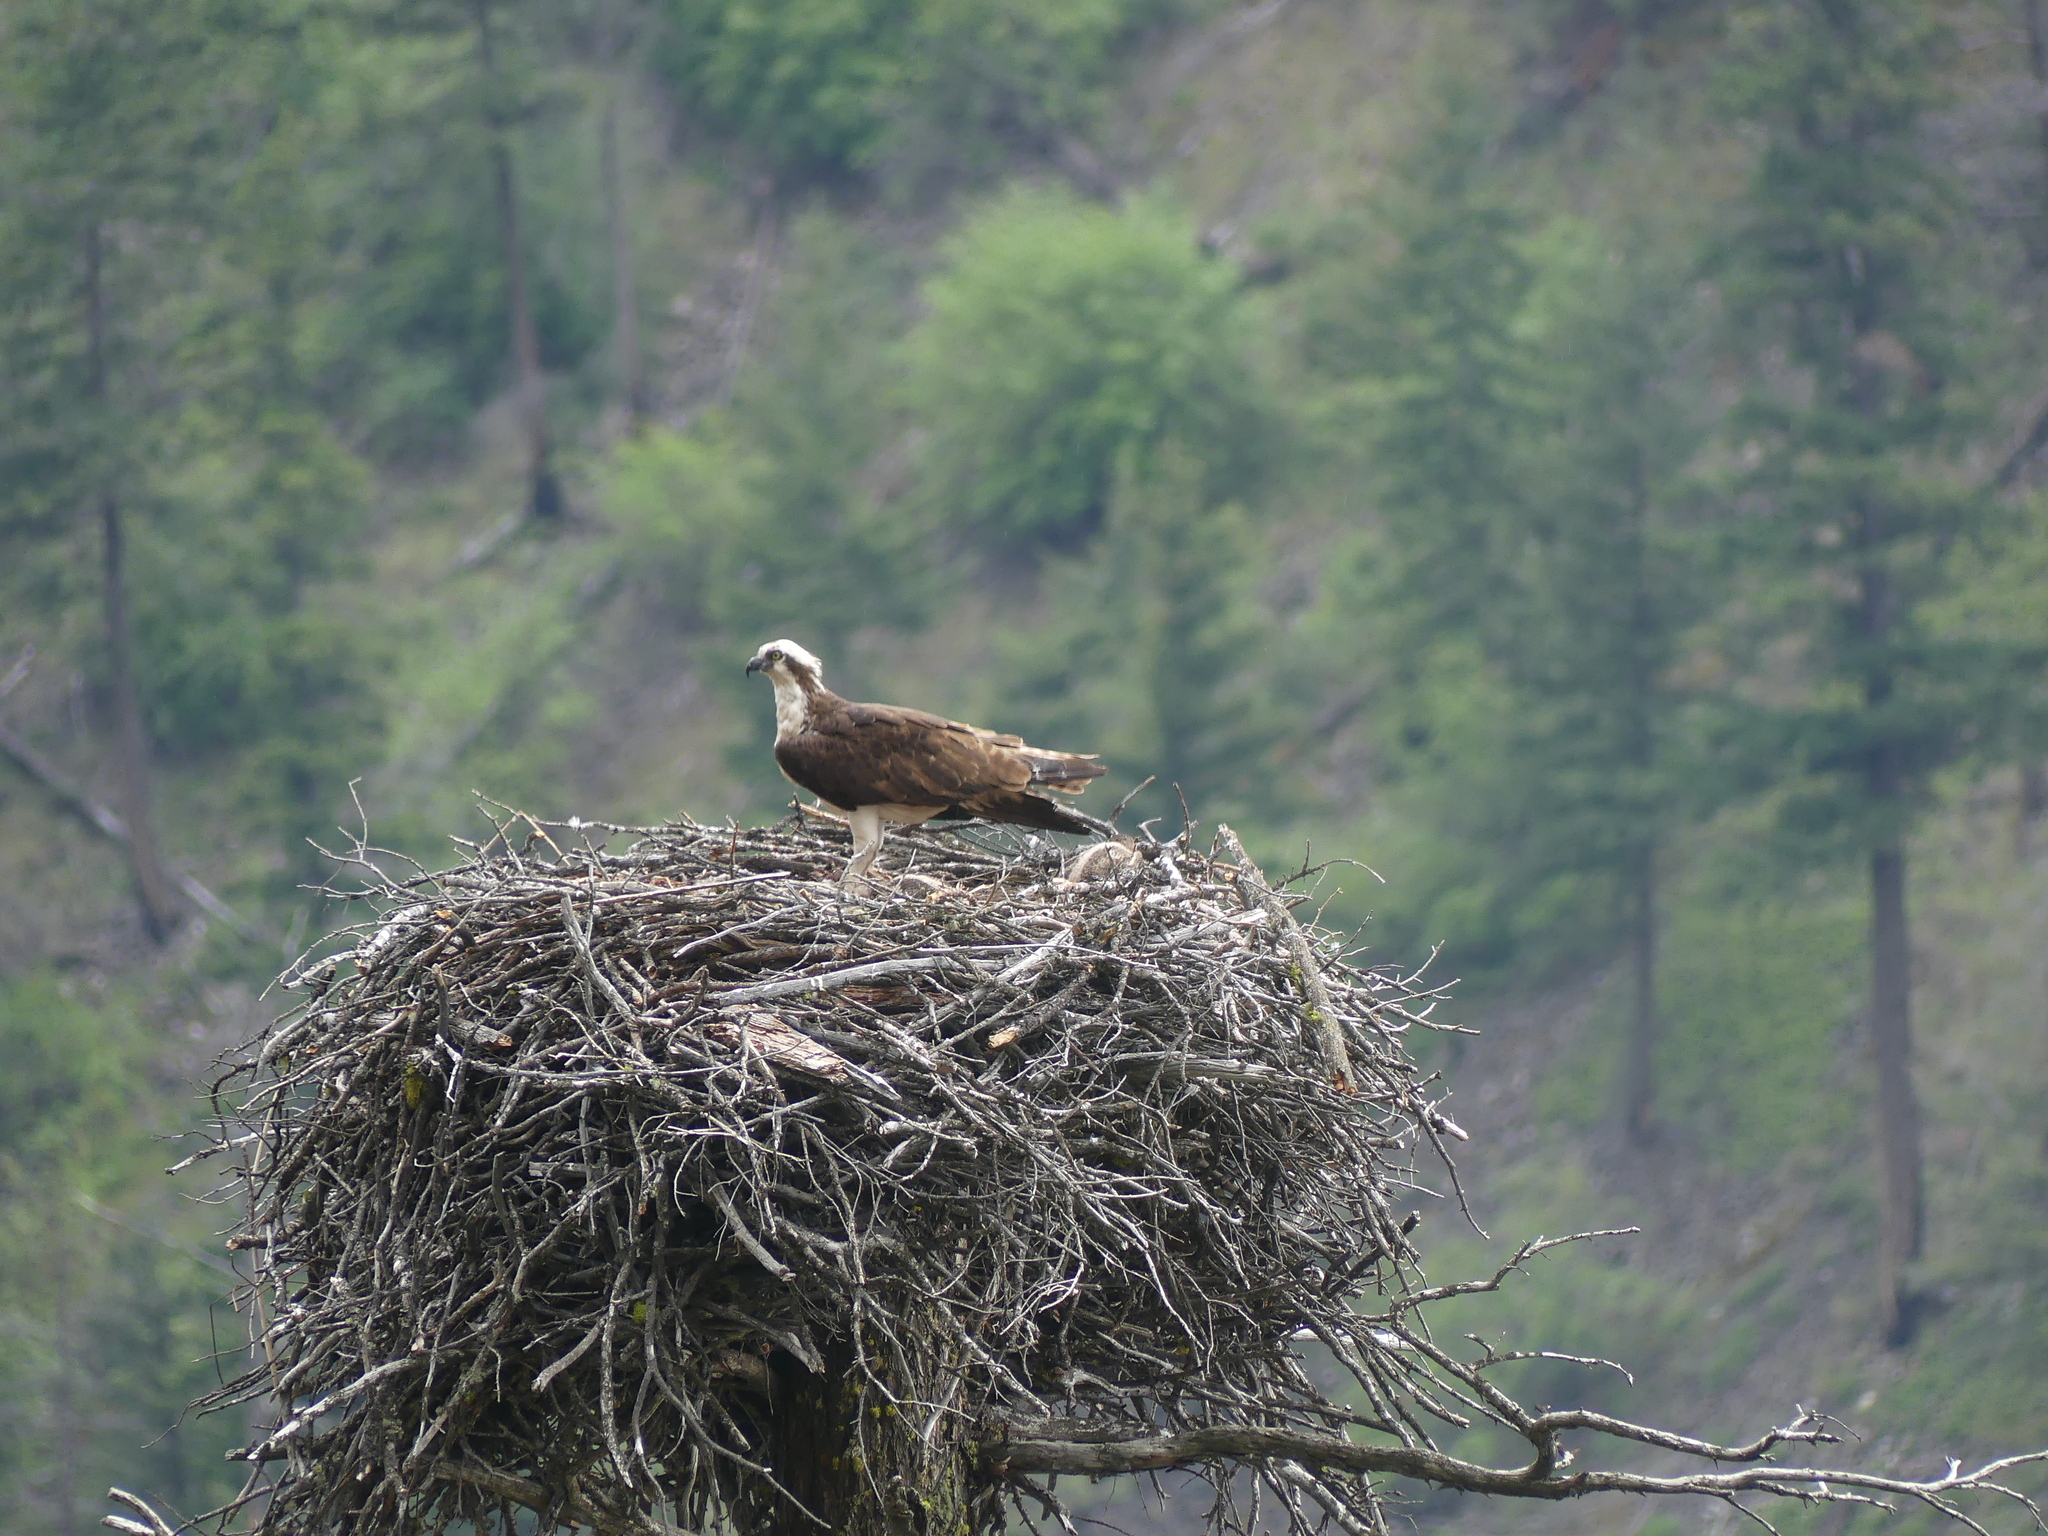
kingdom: Animalia
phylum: Chordata
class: Aves
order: Accipitriformes
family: Pandionidae
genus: Pandion
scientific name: Pandion haliaetus
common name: Osprey
